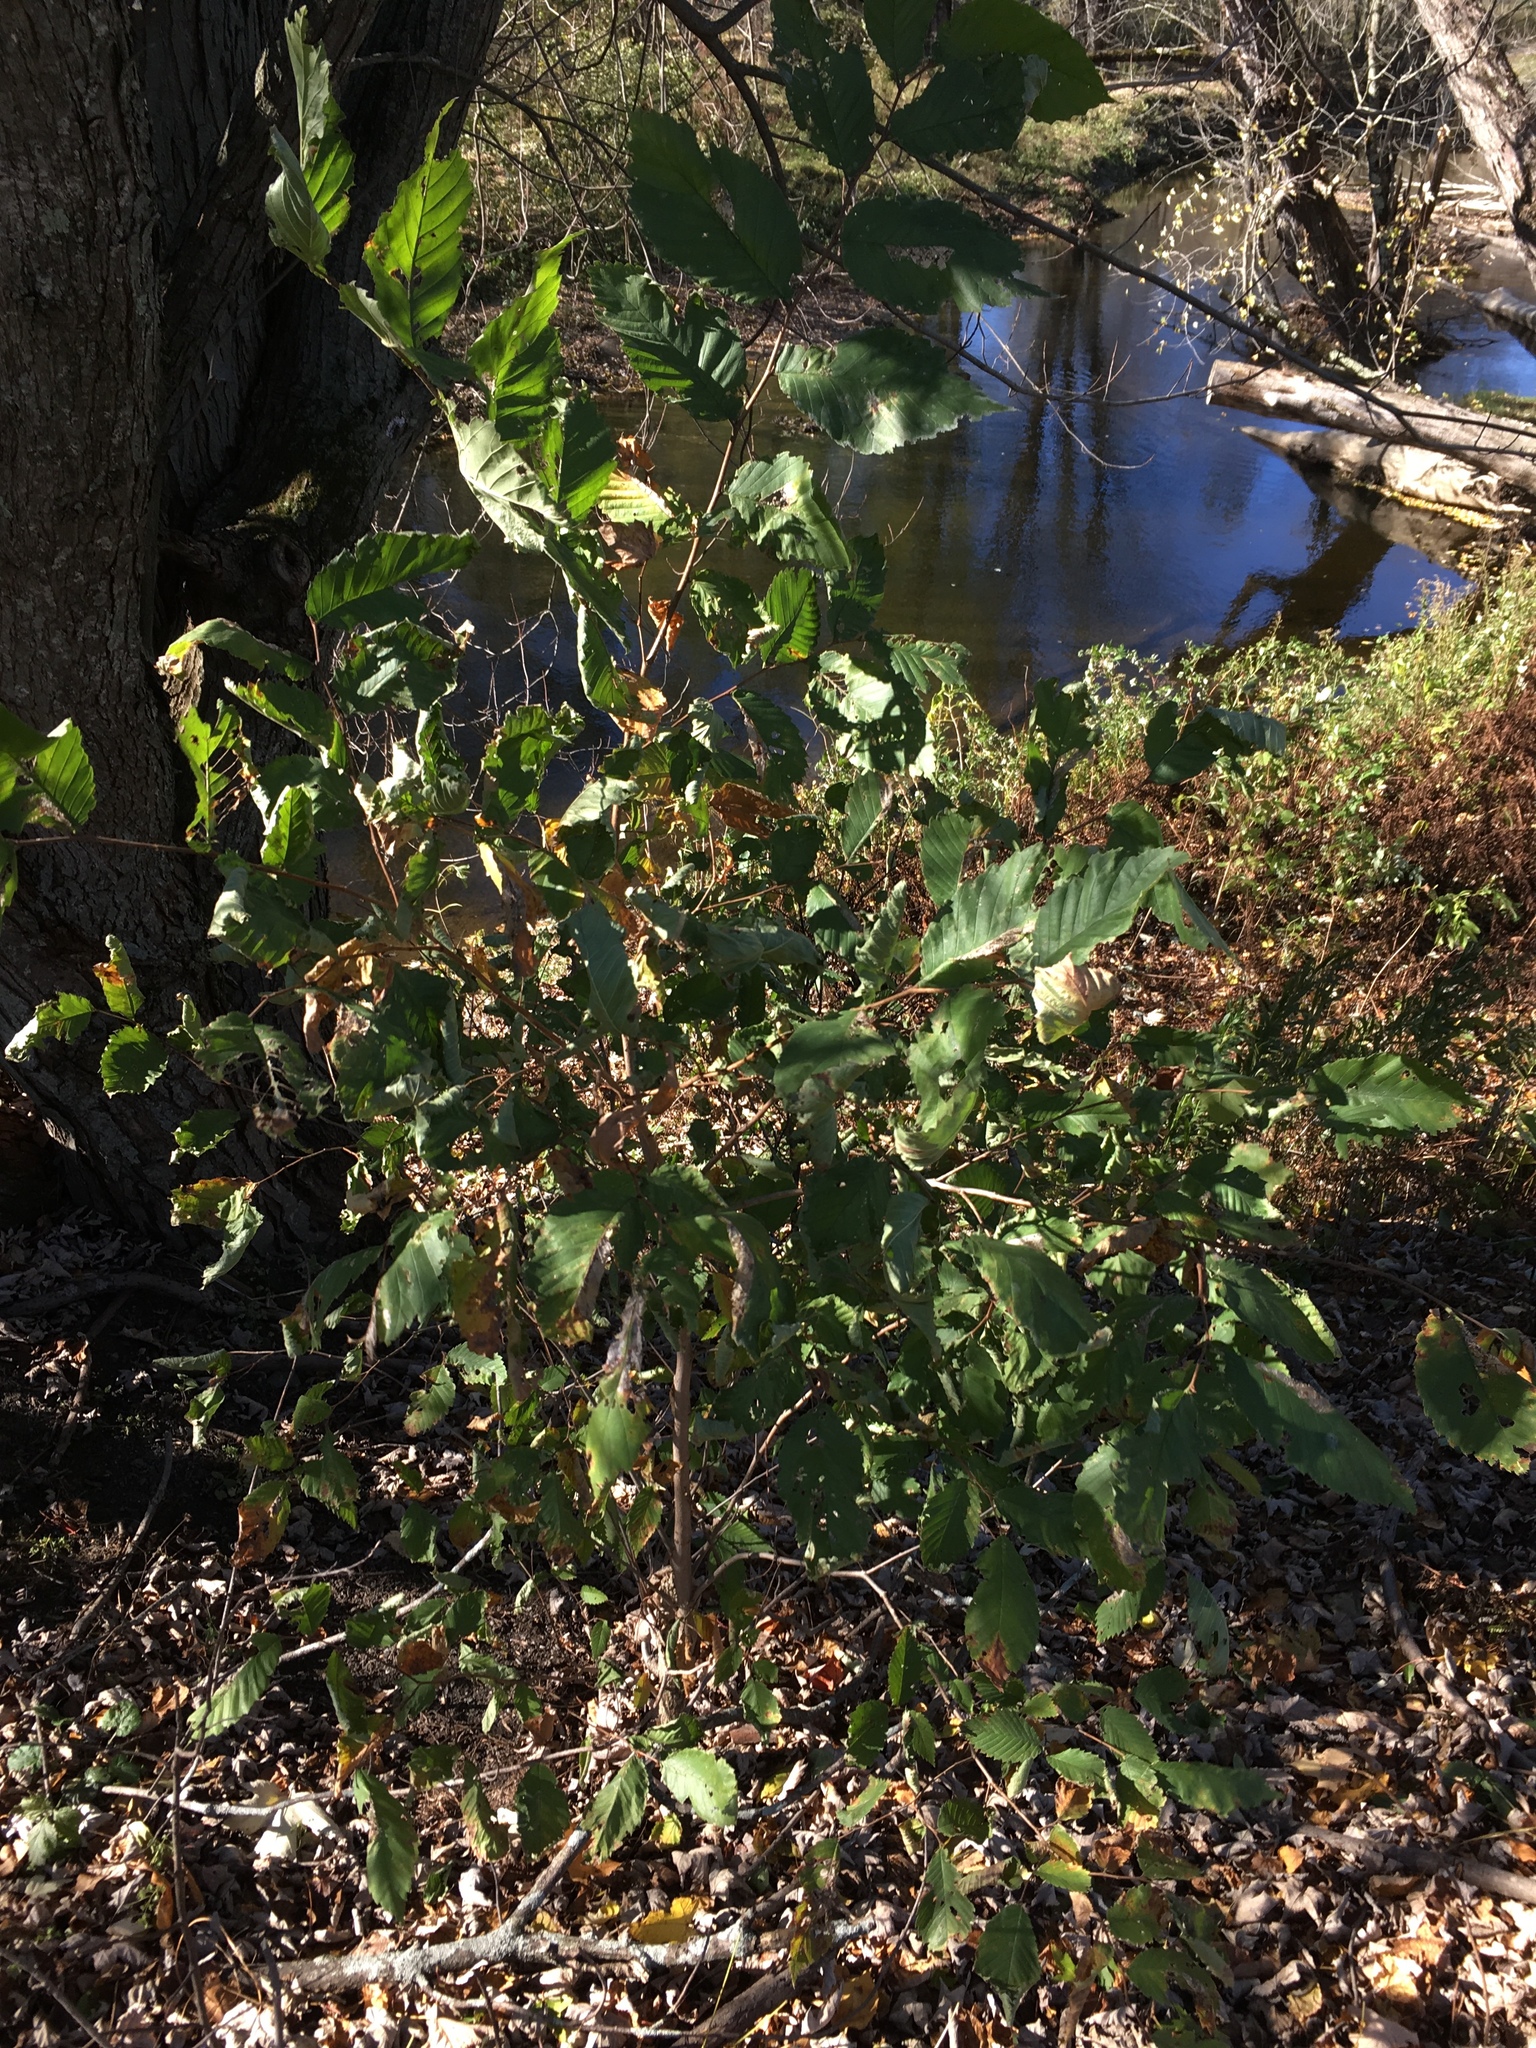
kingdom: Plantae
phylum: Tracheophyta
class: Magnoliopsida
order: Rosales
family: Ulmaceae
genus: Ulmus
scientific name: Ulmus americana
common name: American elm
